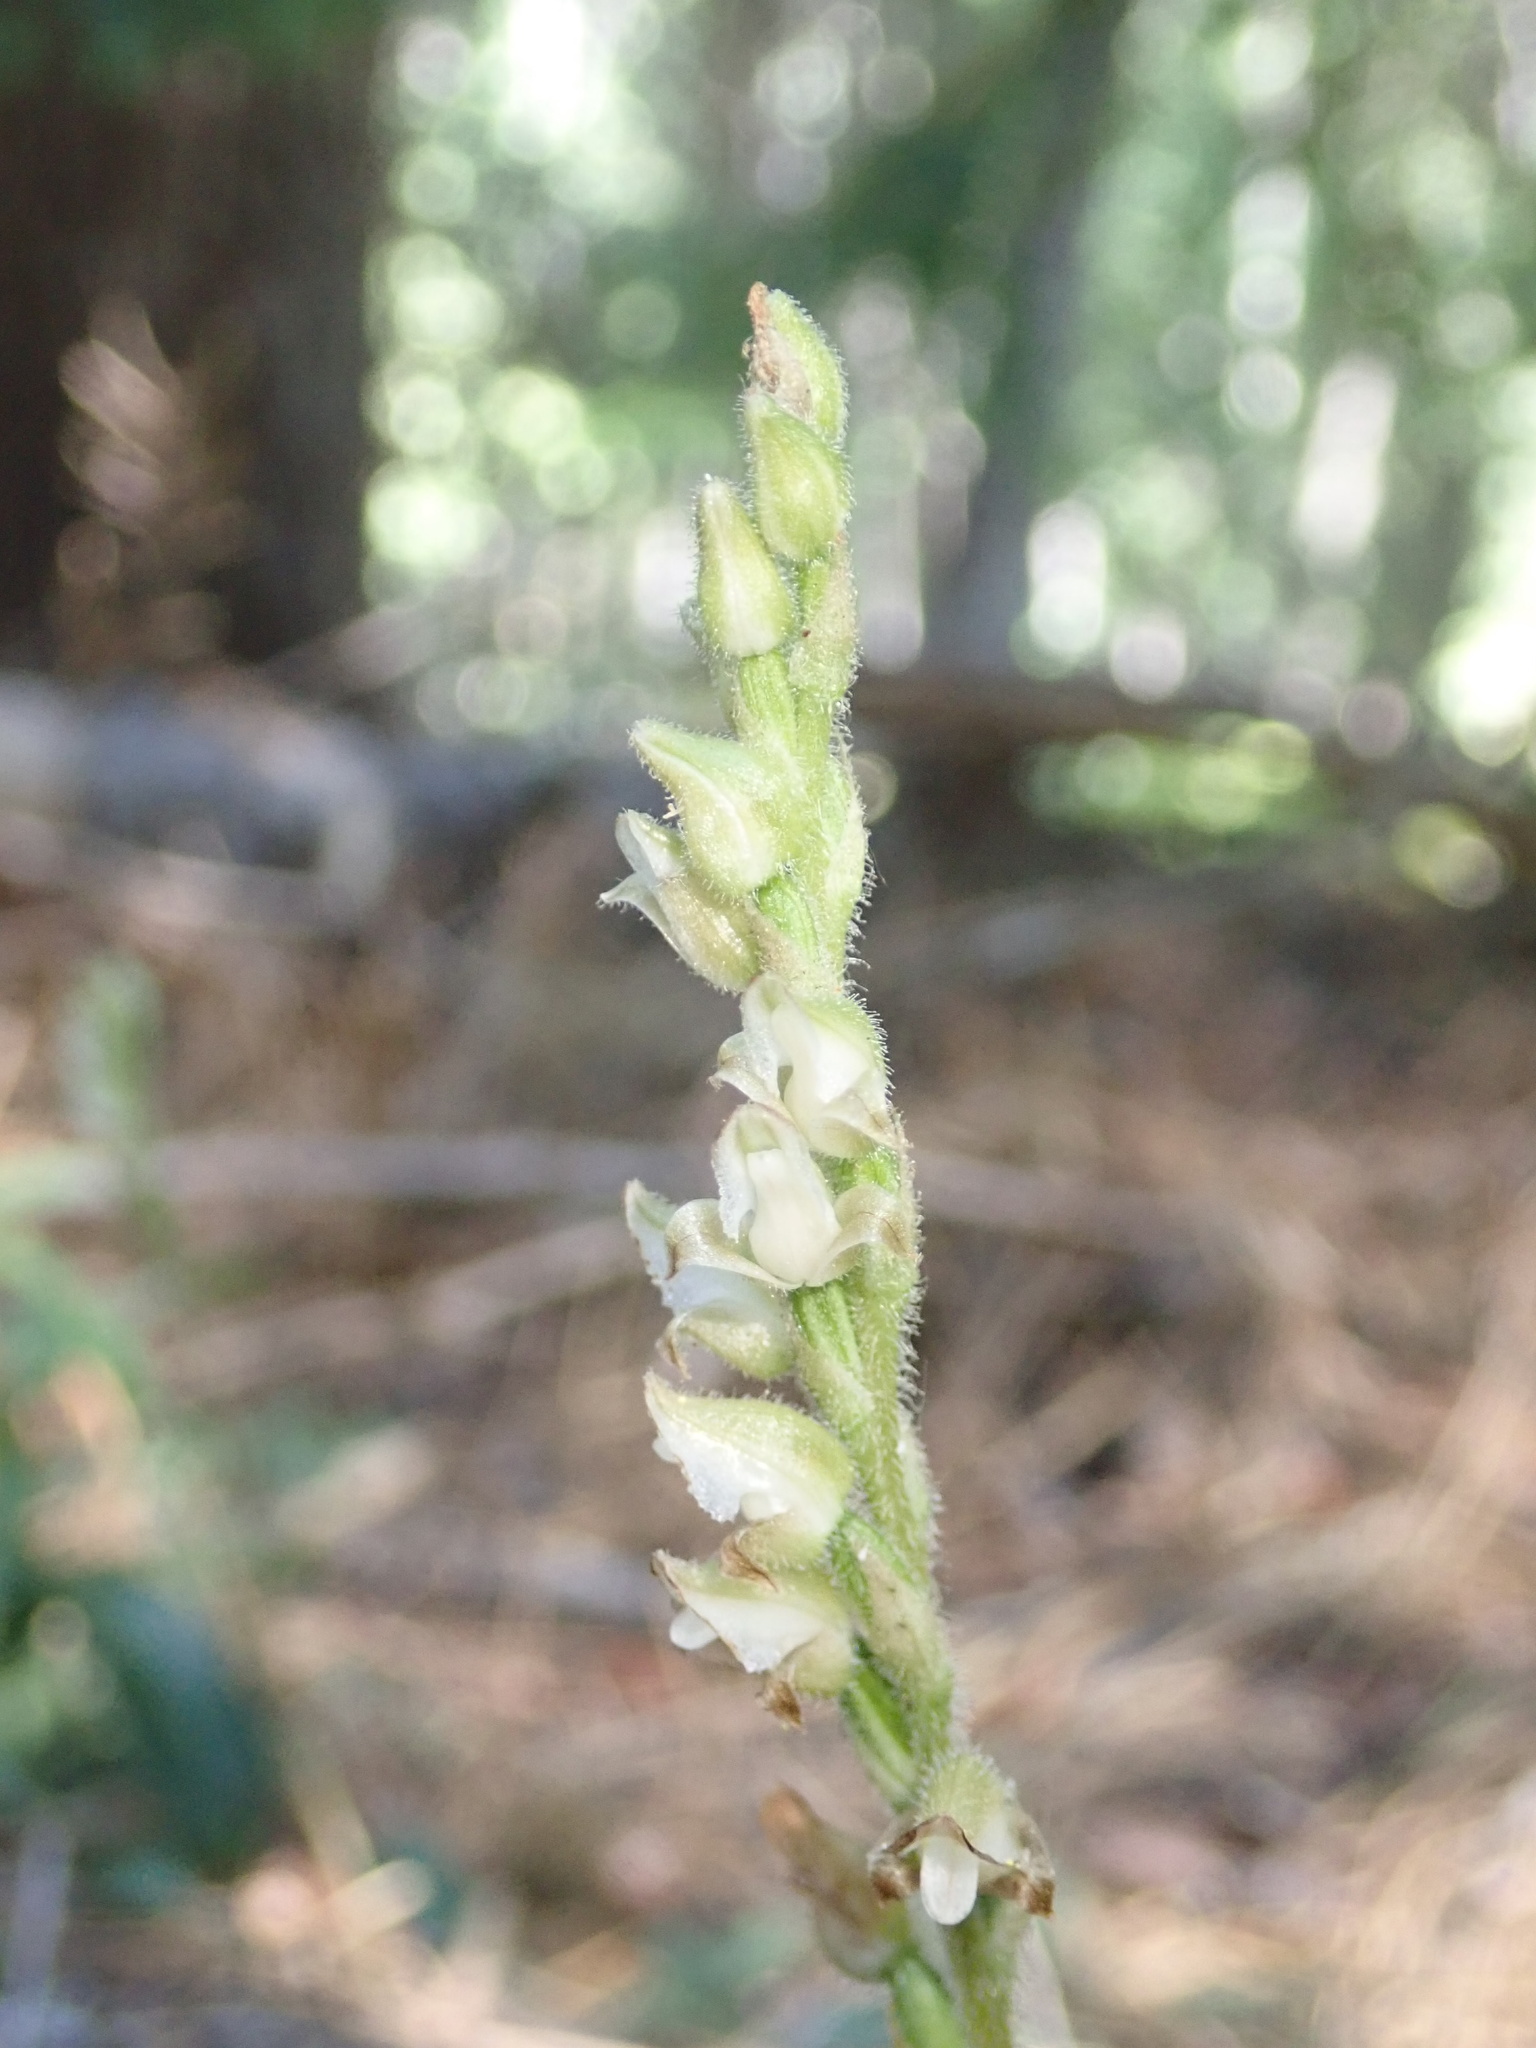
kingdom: Plantae
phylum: Tracheophyta
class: Liliopsida
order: Asparagales
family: Orchidaceae
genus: Goodyera
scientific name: Goodyera oblongifolia
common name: Giant rattlesnake-plantain
